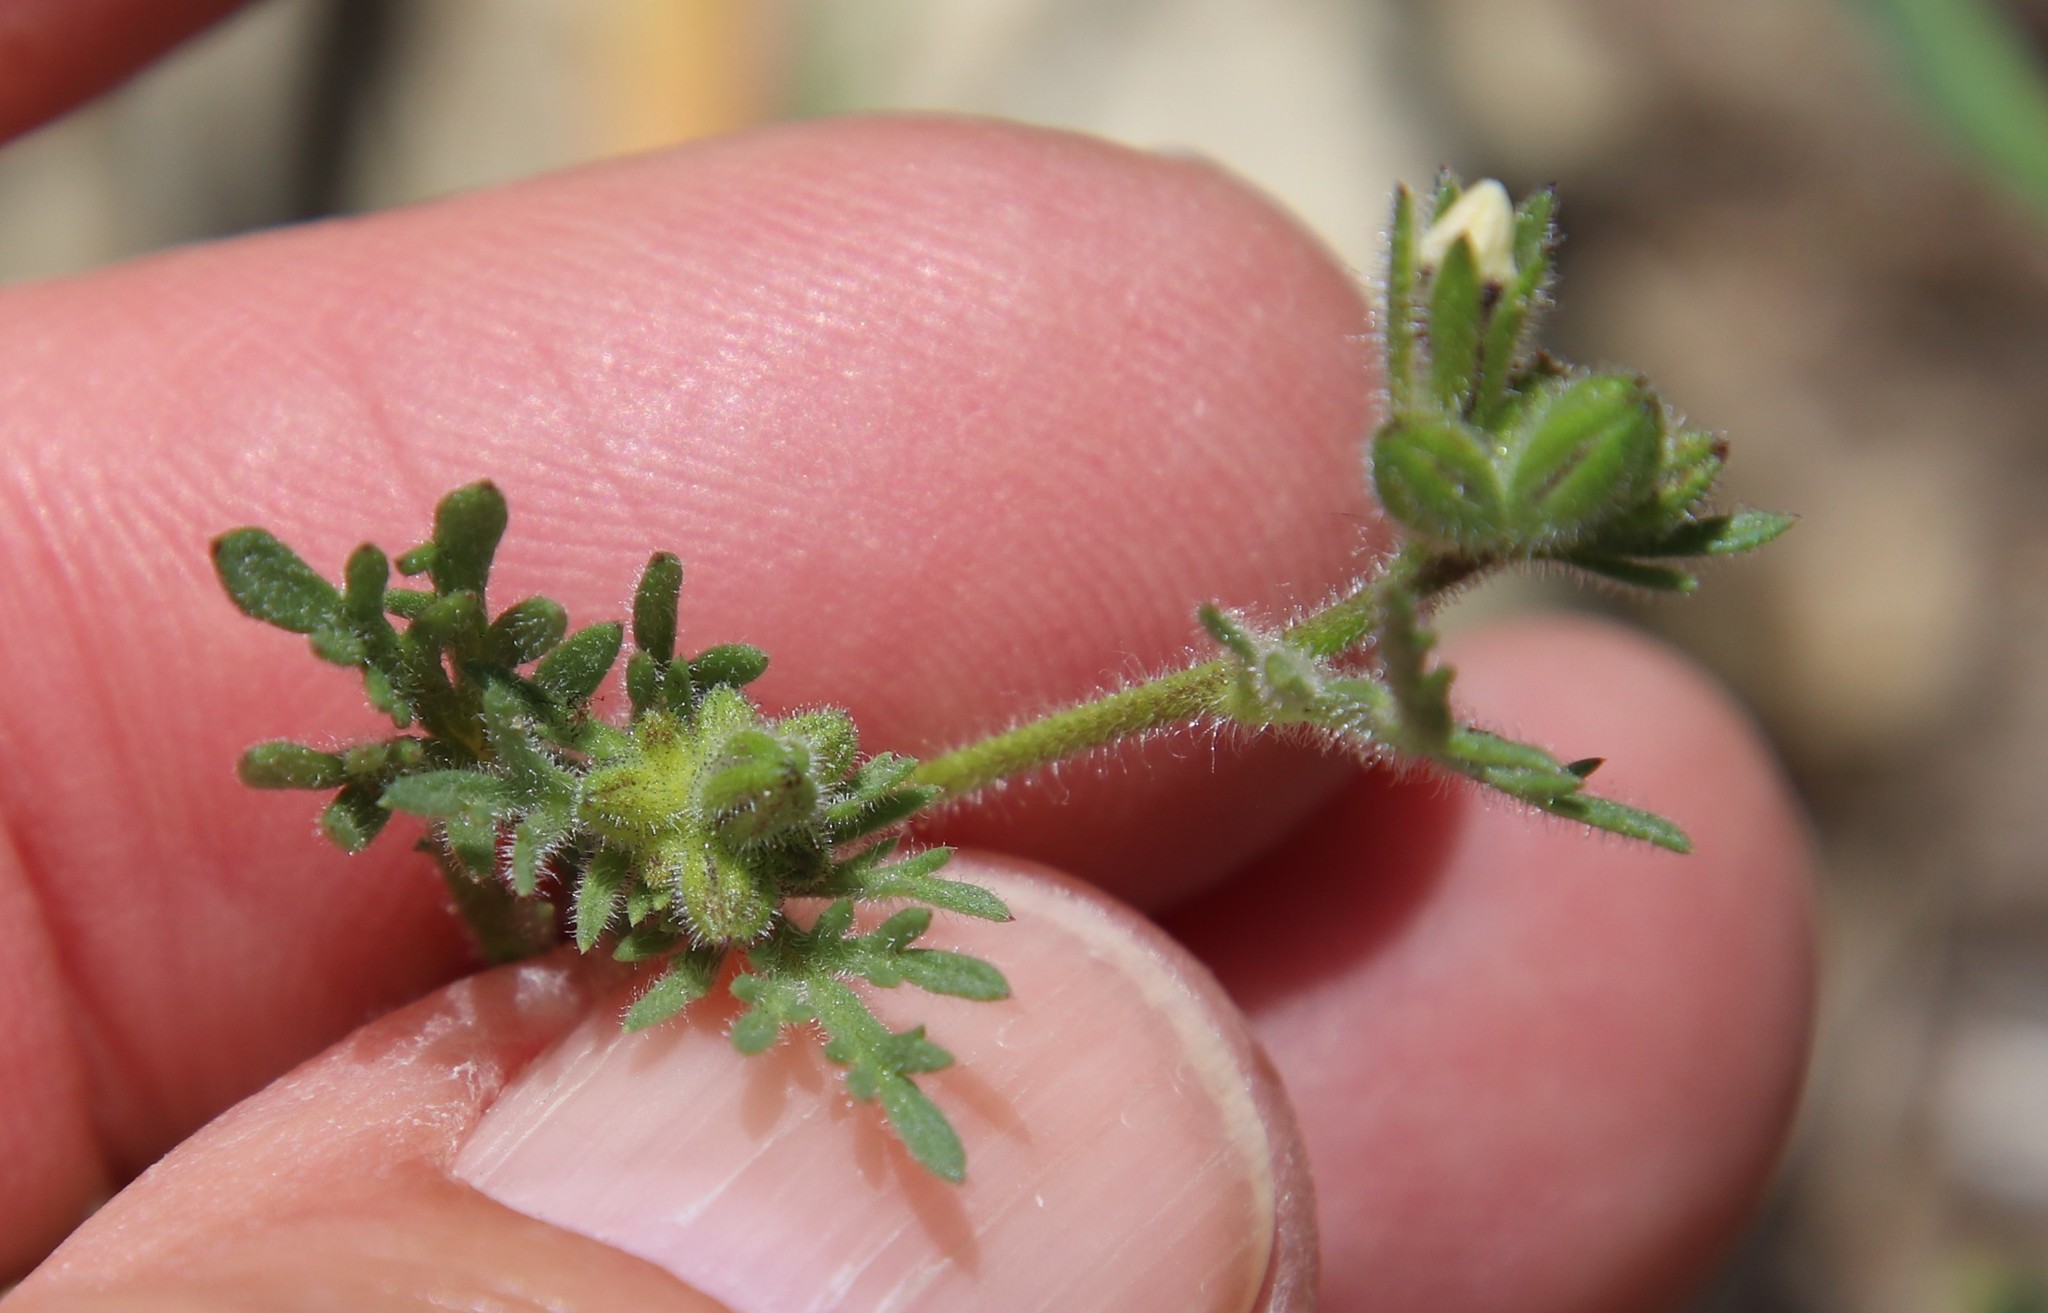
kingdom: Plantae
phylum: Tracheophyta
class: Magnoliopsida
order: Ericales
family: Polemoniaceae
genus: Gilia
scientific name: Gilia clivorum
